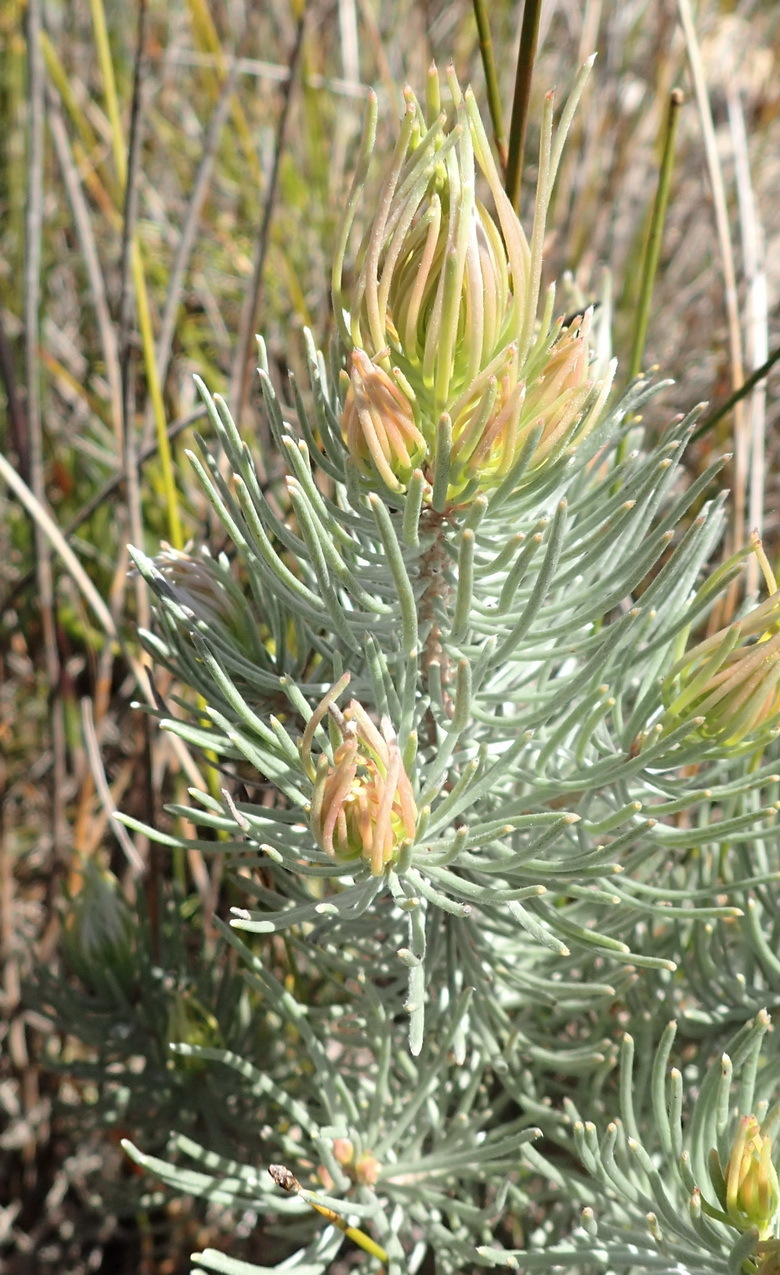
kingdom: Plantae
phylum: Tracheophyta
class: Magnoliopsida
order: Proteales
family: Proteaceae
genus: Leucadendron
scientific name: Leucadendron album
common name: Linear-leaf conebush
